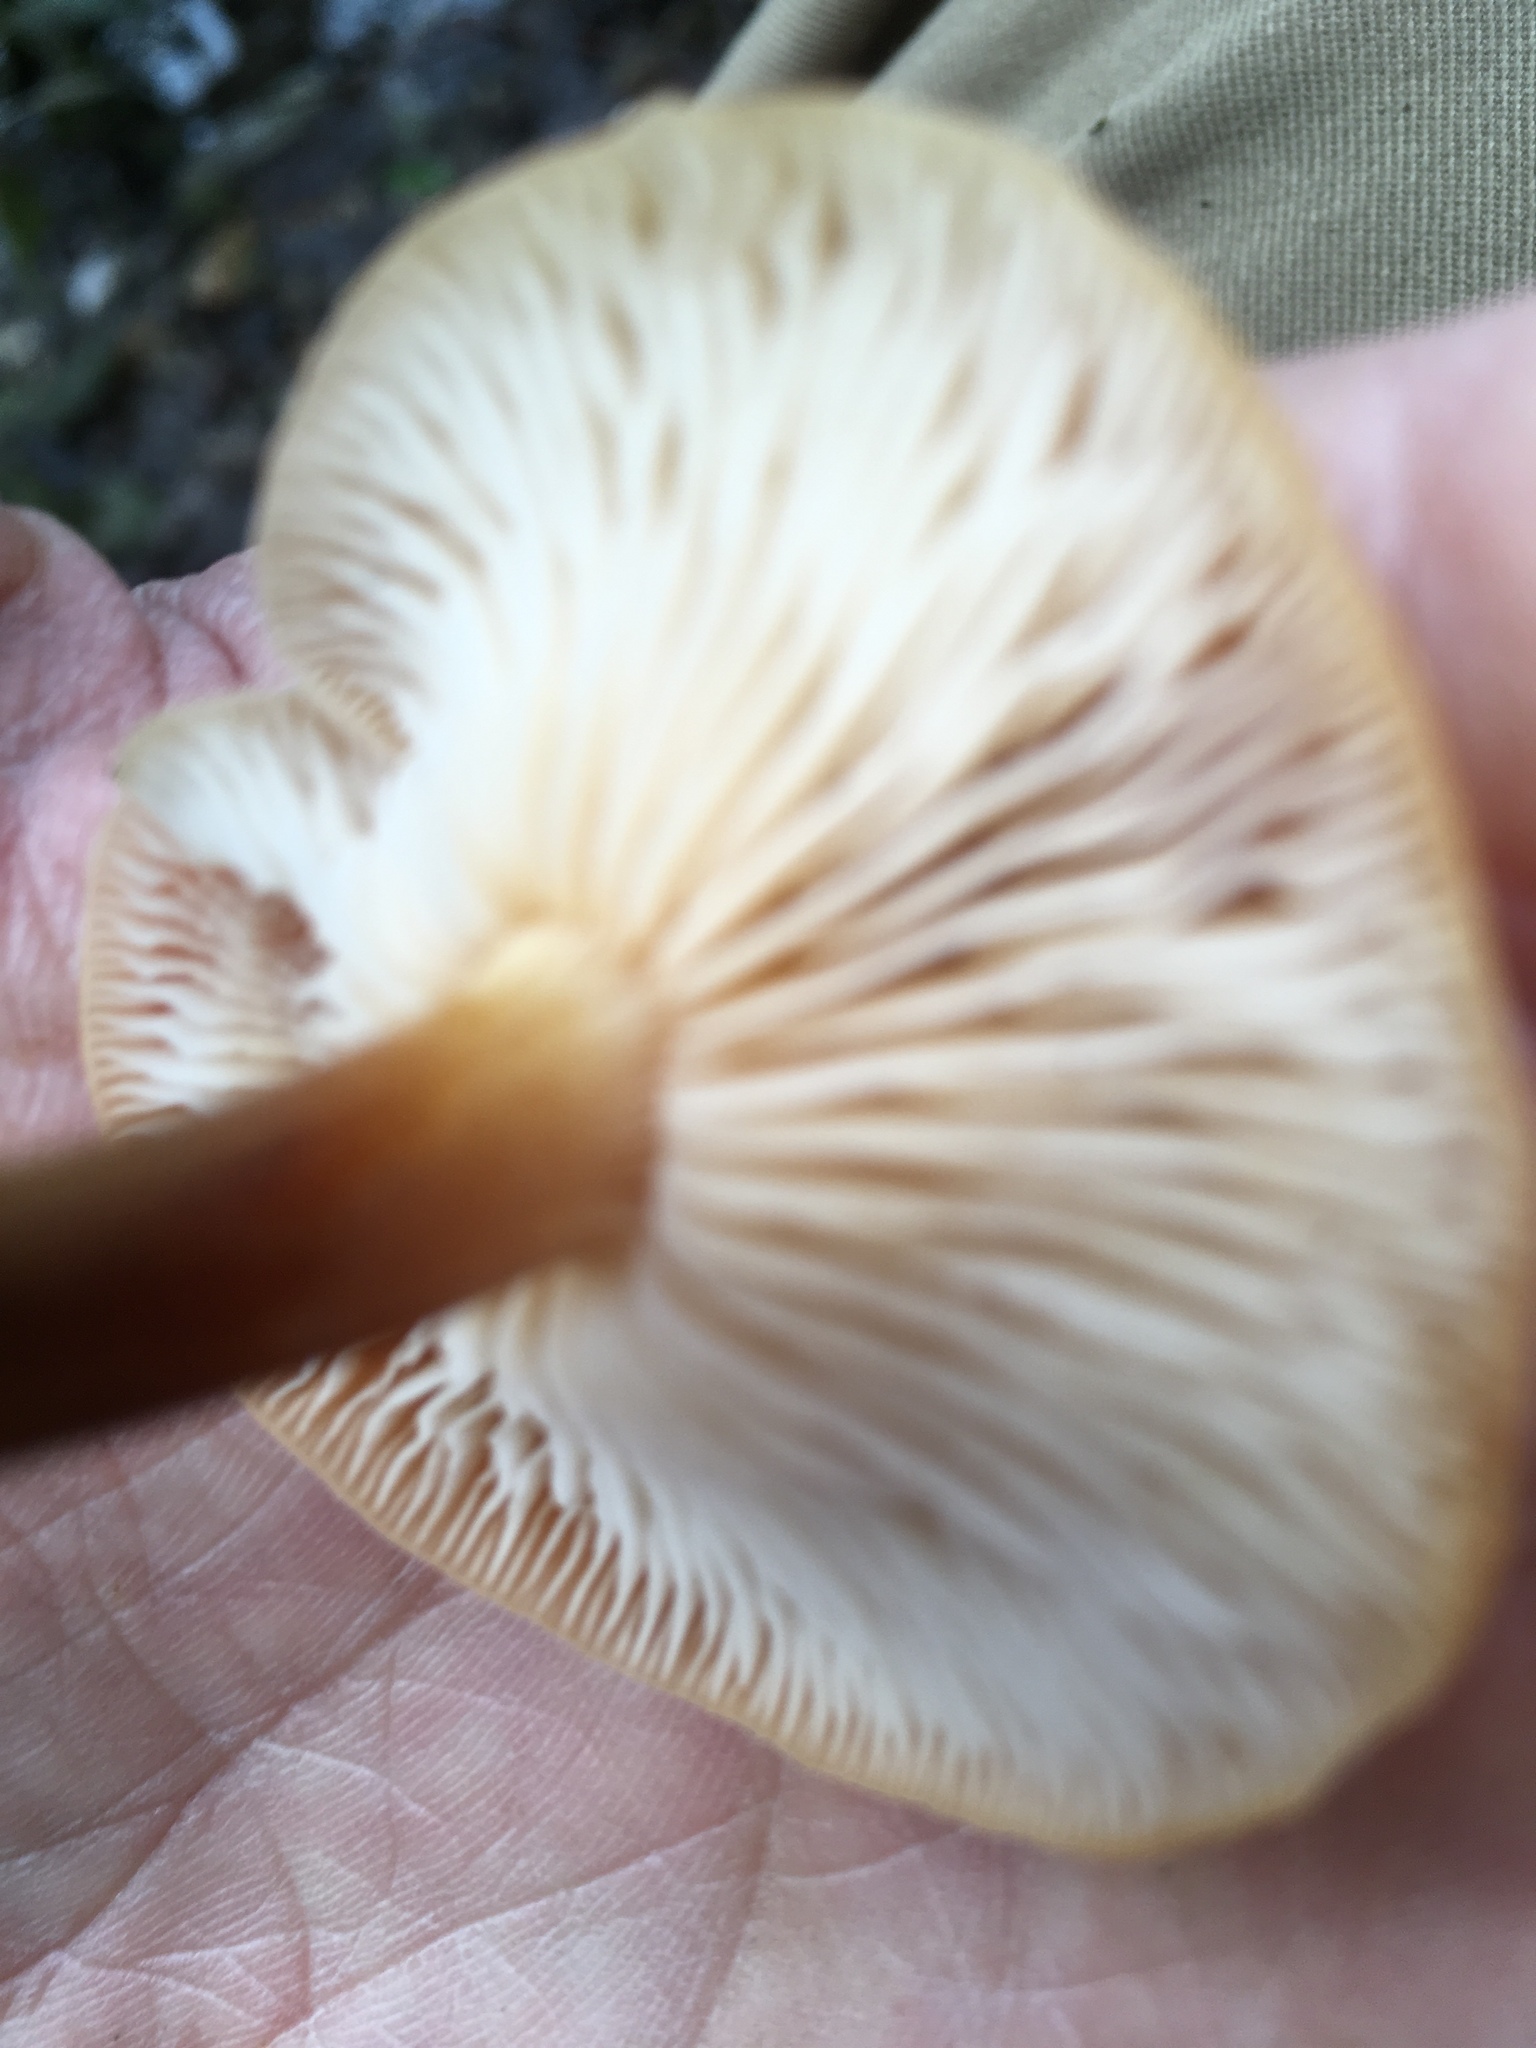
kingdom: Fungi
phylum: Basidiomycota
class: Agaricomycetes
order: Agaricales
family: Physalacriaceae
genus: Flammulina
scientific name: Flammulina
